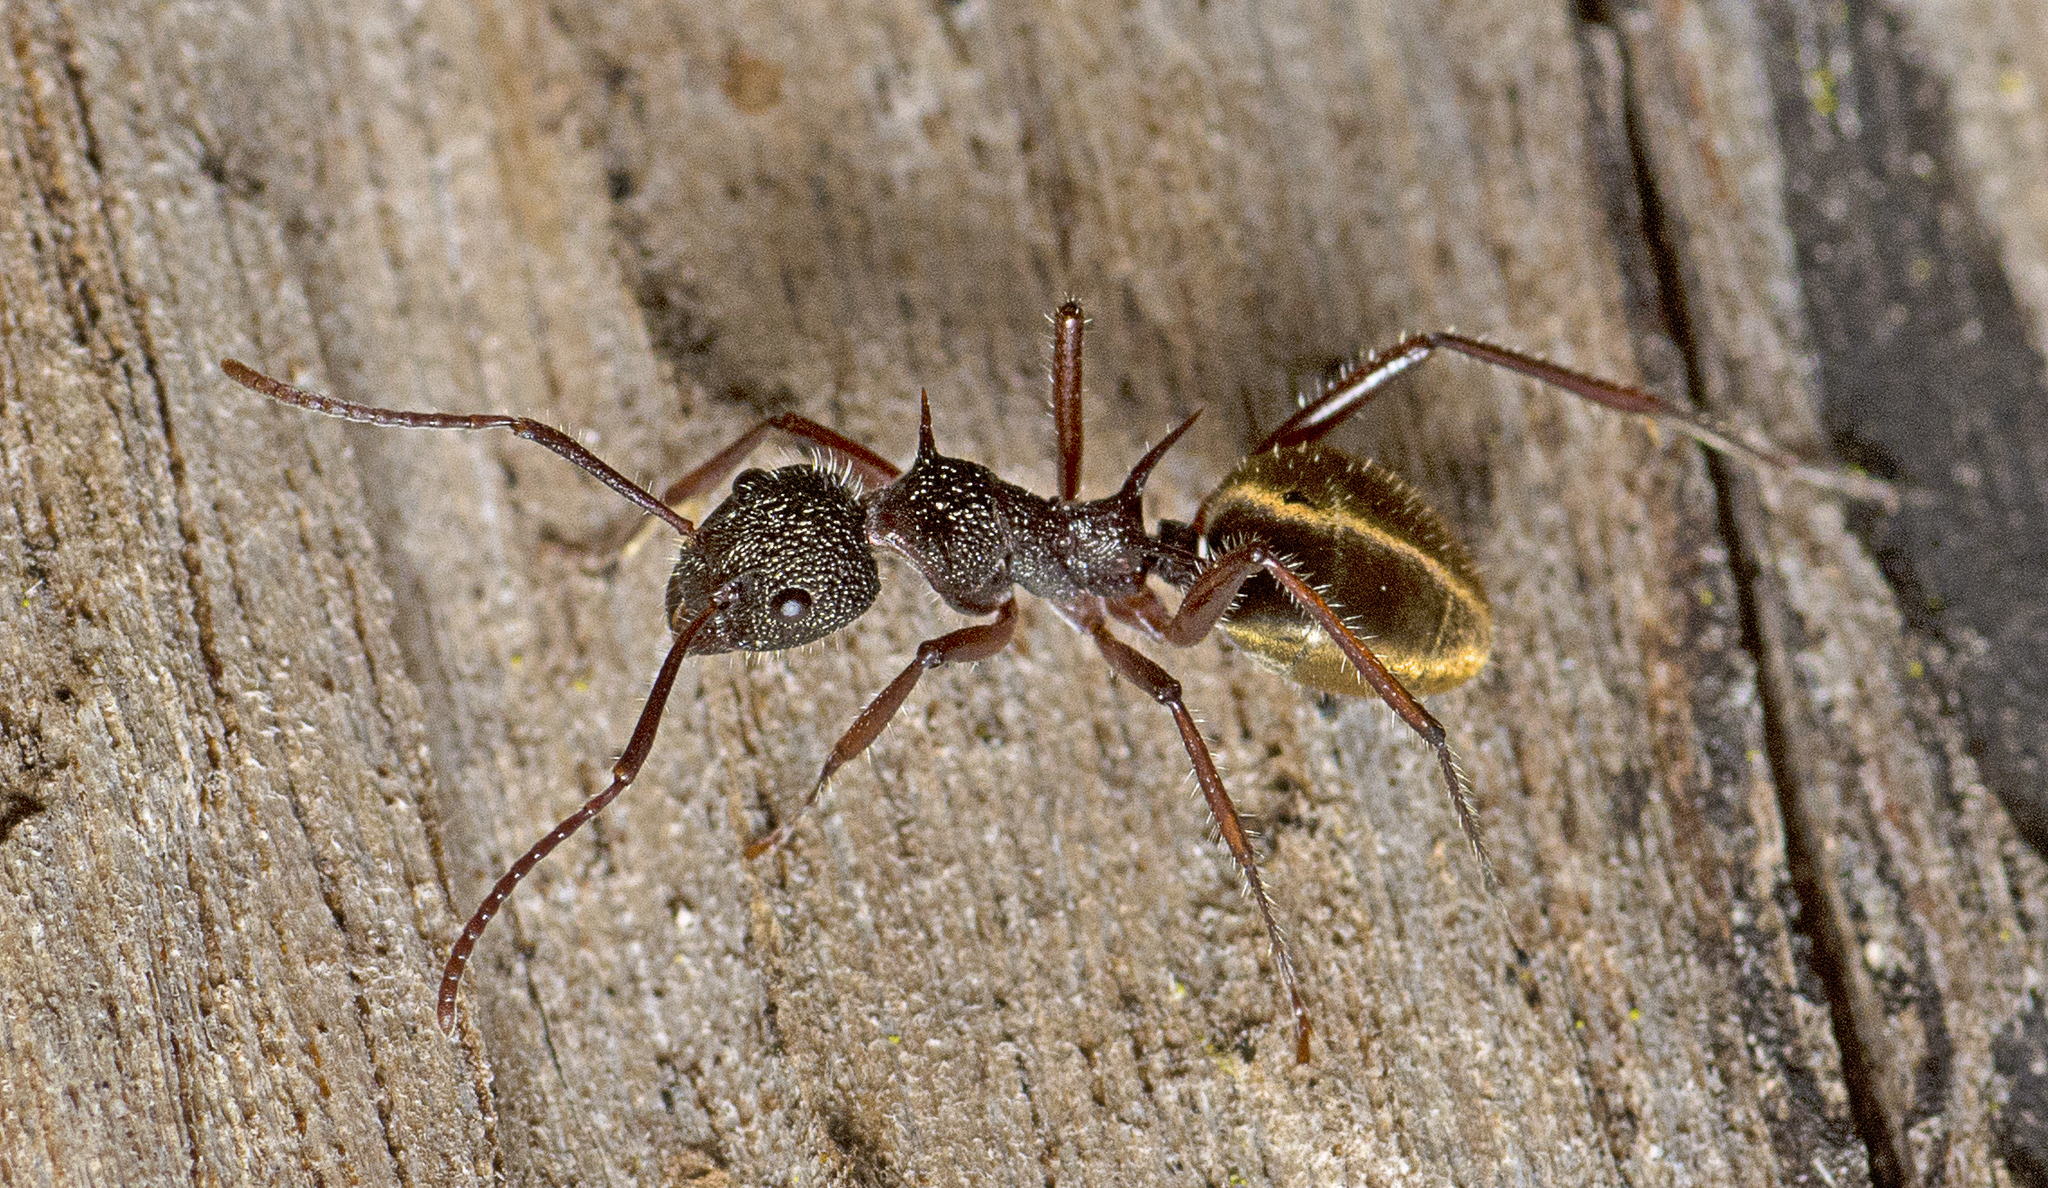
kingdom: Animalia
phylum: Arthropoda
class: Insecta
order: Hymenoptera
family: Formicidae
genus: Dolichoderus
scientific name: Dolichoderus extensispinus
